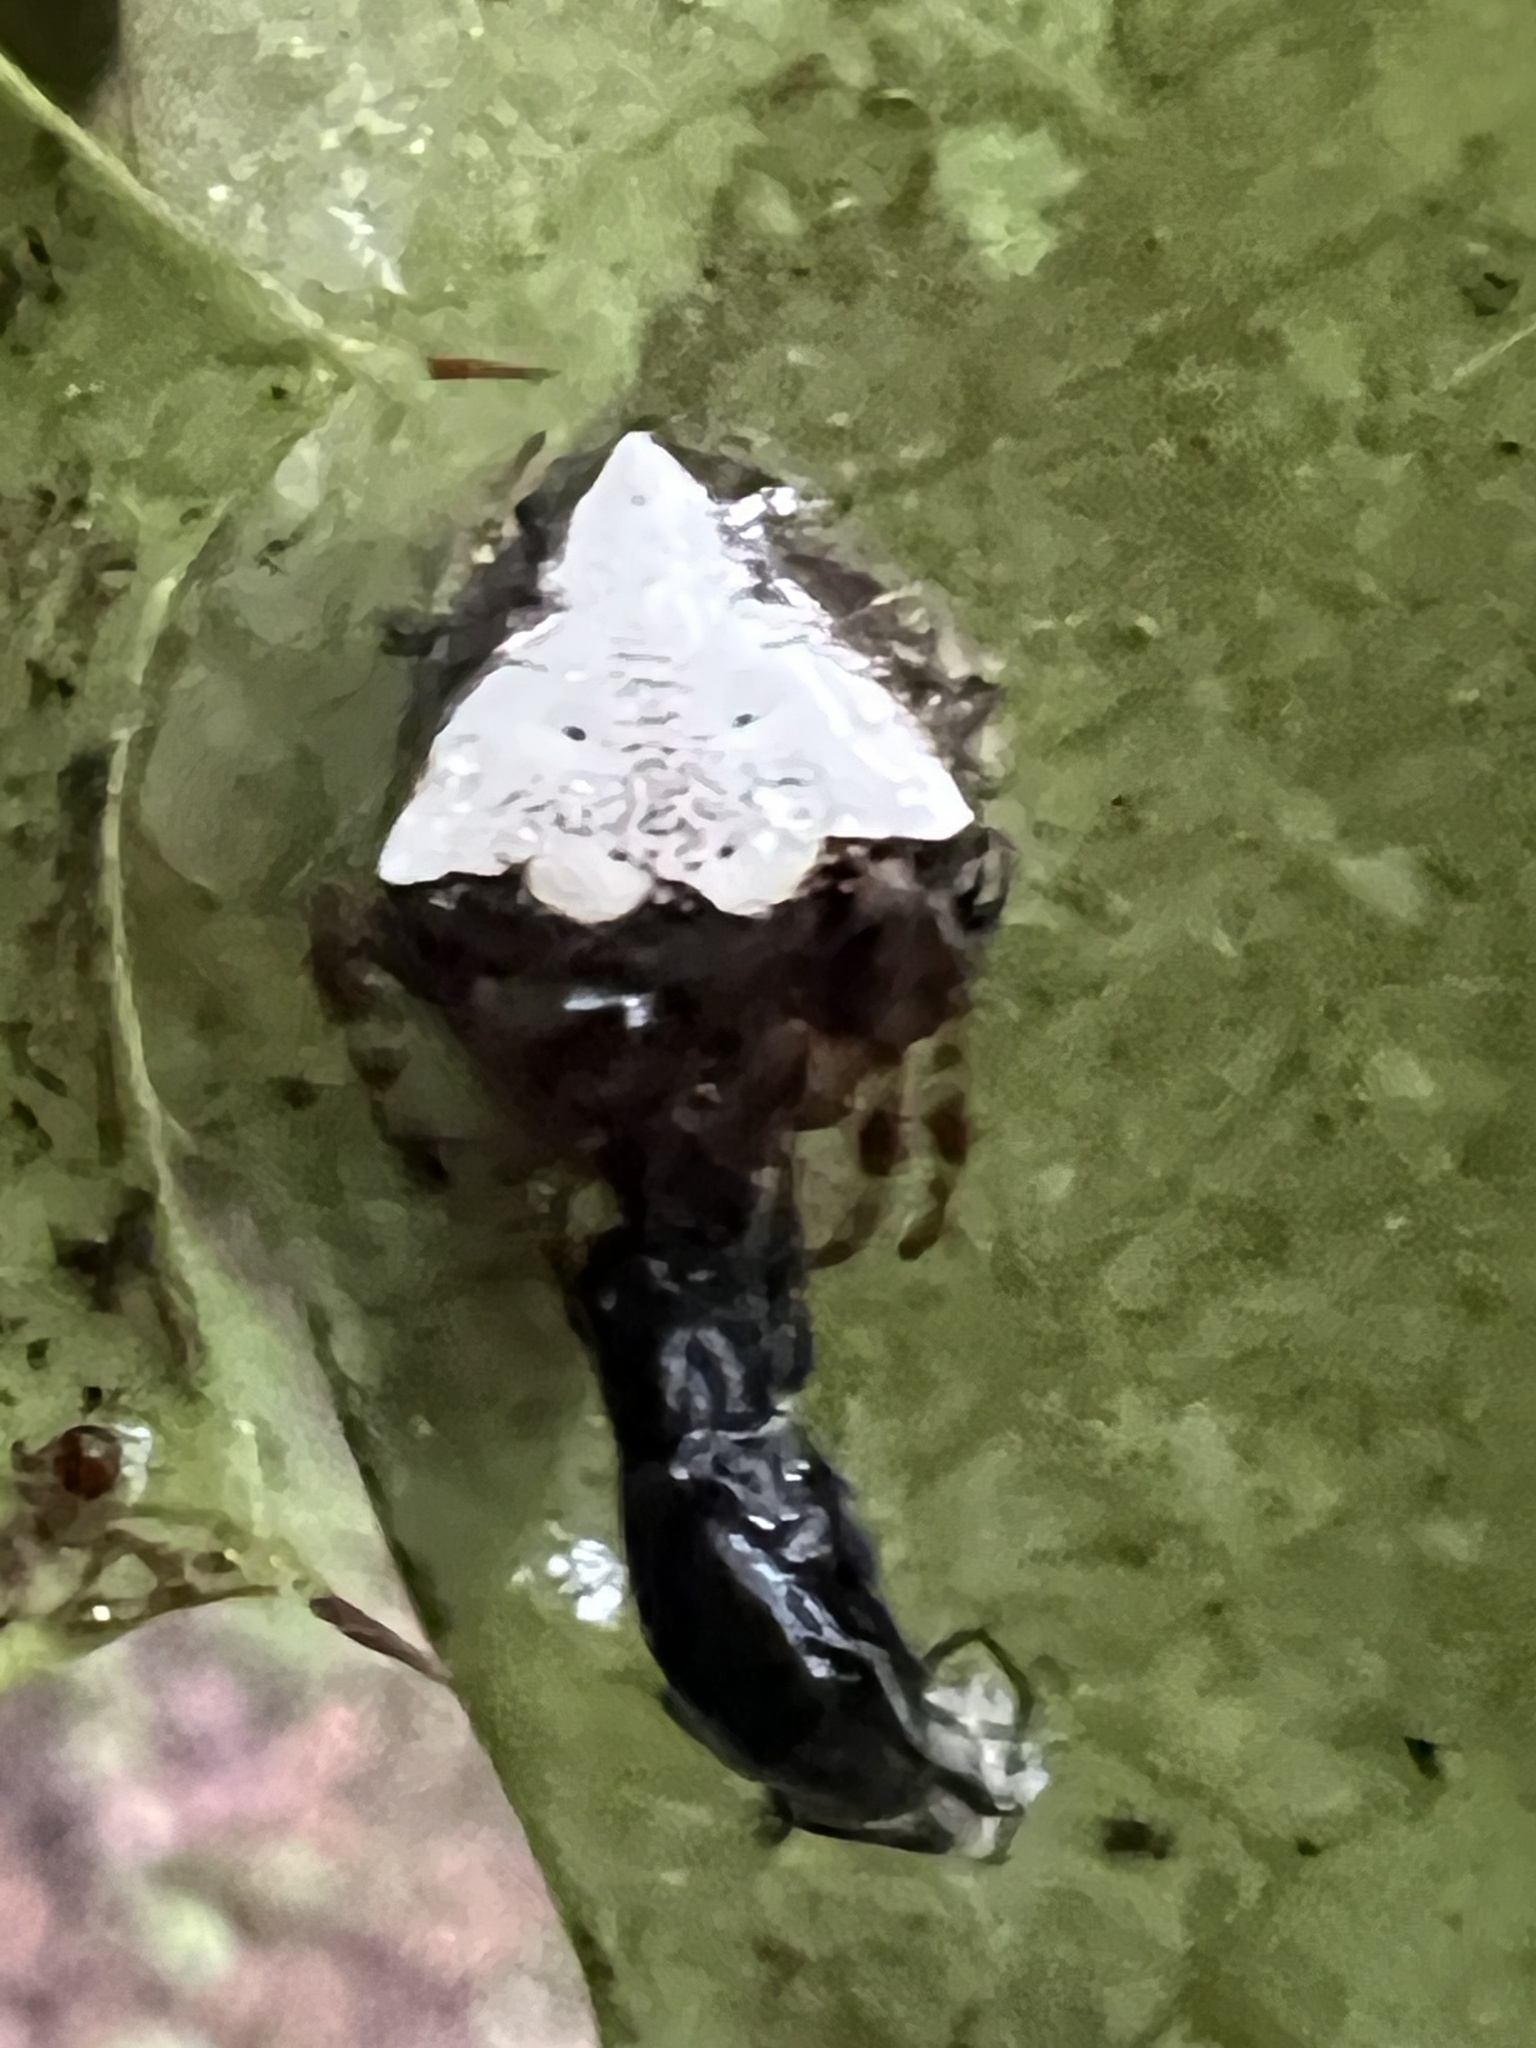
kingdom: Animalia
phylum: Arthropoda
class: Arachnida
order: Araneae
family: Araneidae
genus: Verrucosa
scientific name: Verrucosa arenata
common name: Orb weavers
